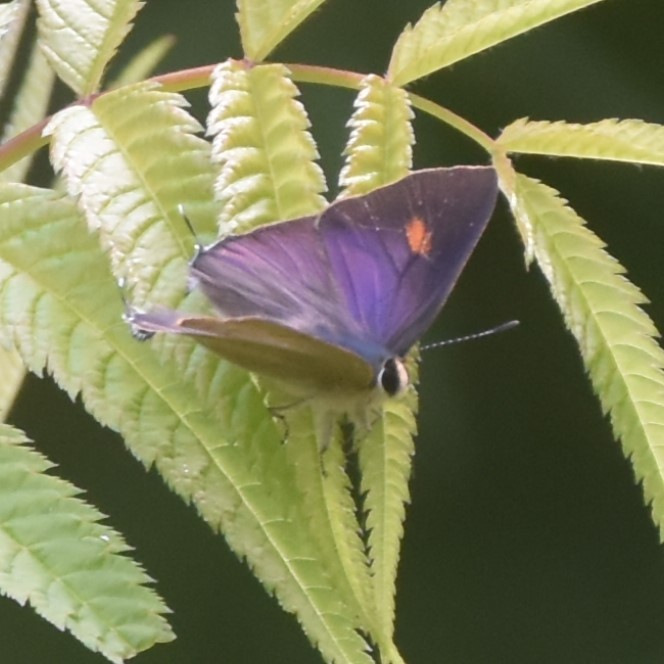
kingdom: Animalia
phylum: Arthropoda
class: Insecta
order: Lepidoptera
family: Lycaenidae
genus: Rapala
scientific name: Rapala nissa
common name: Common flash
